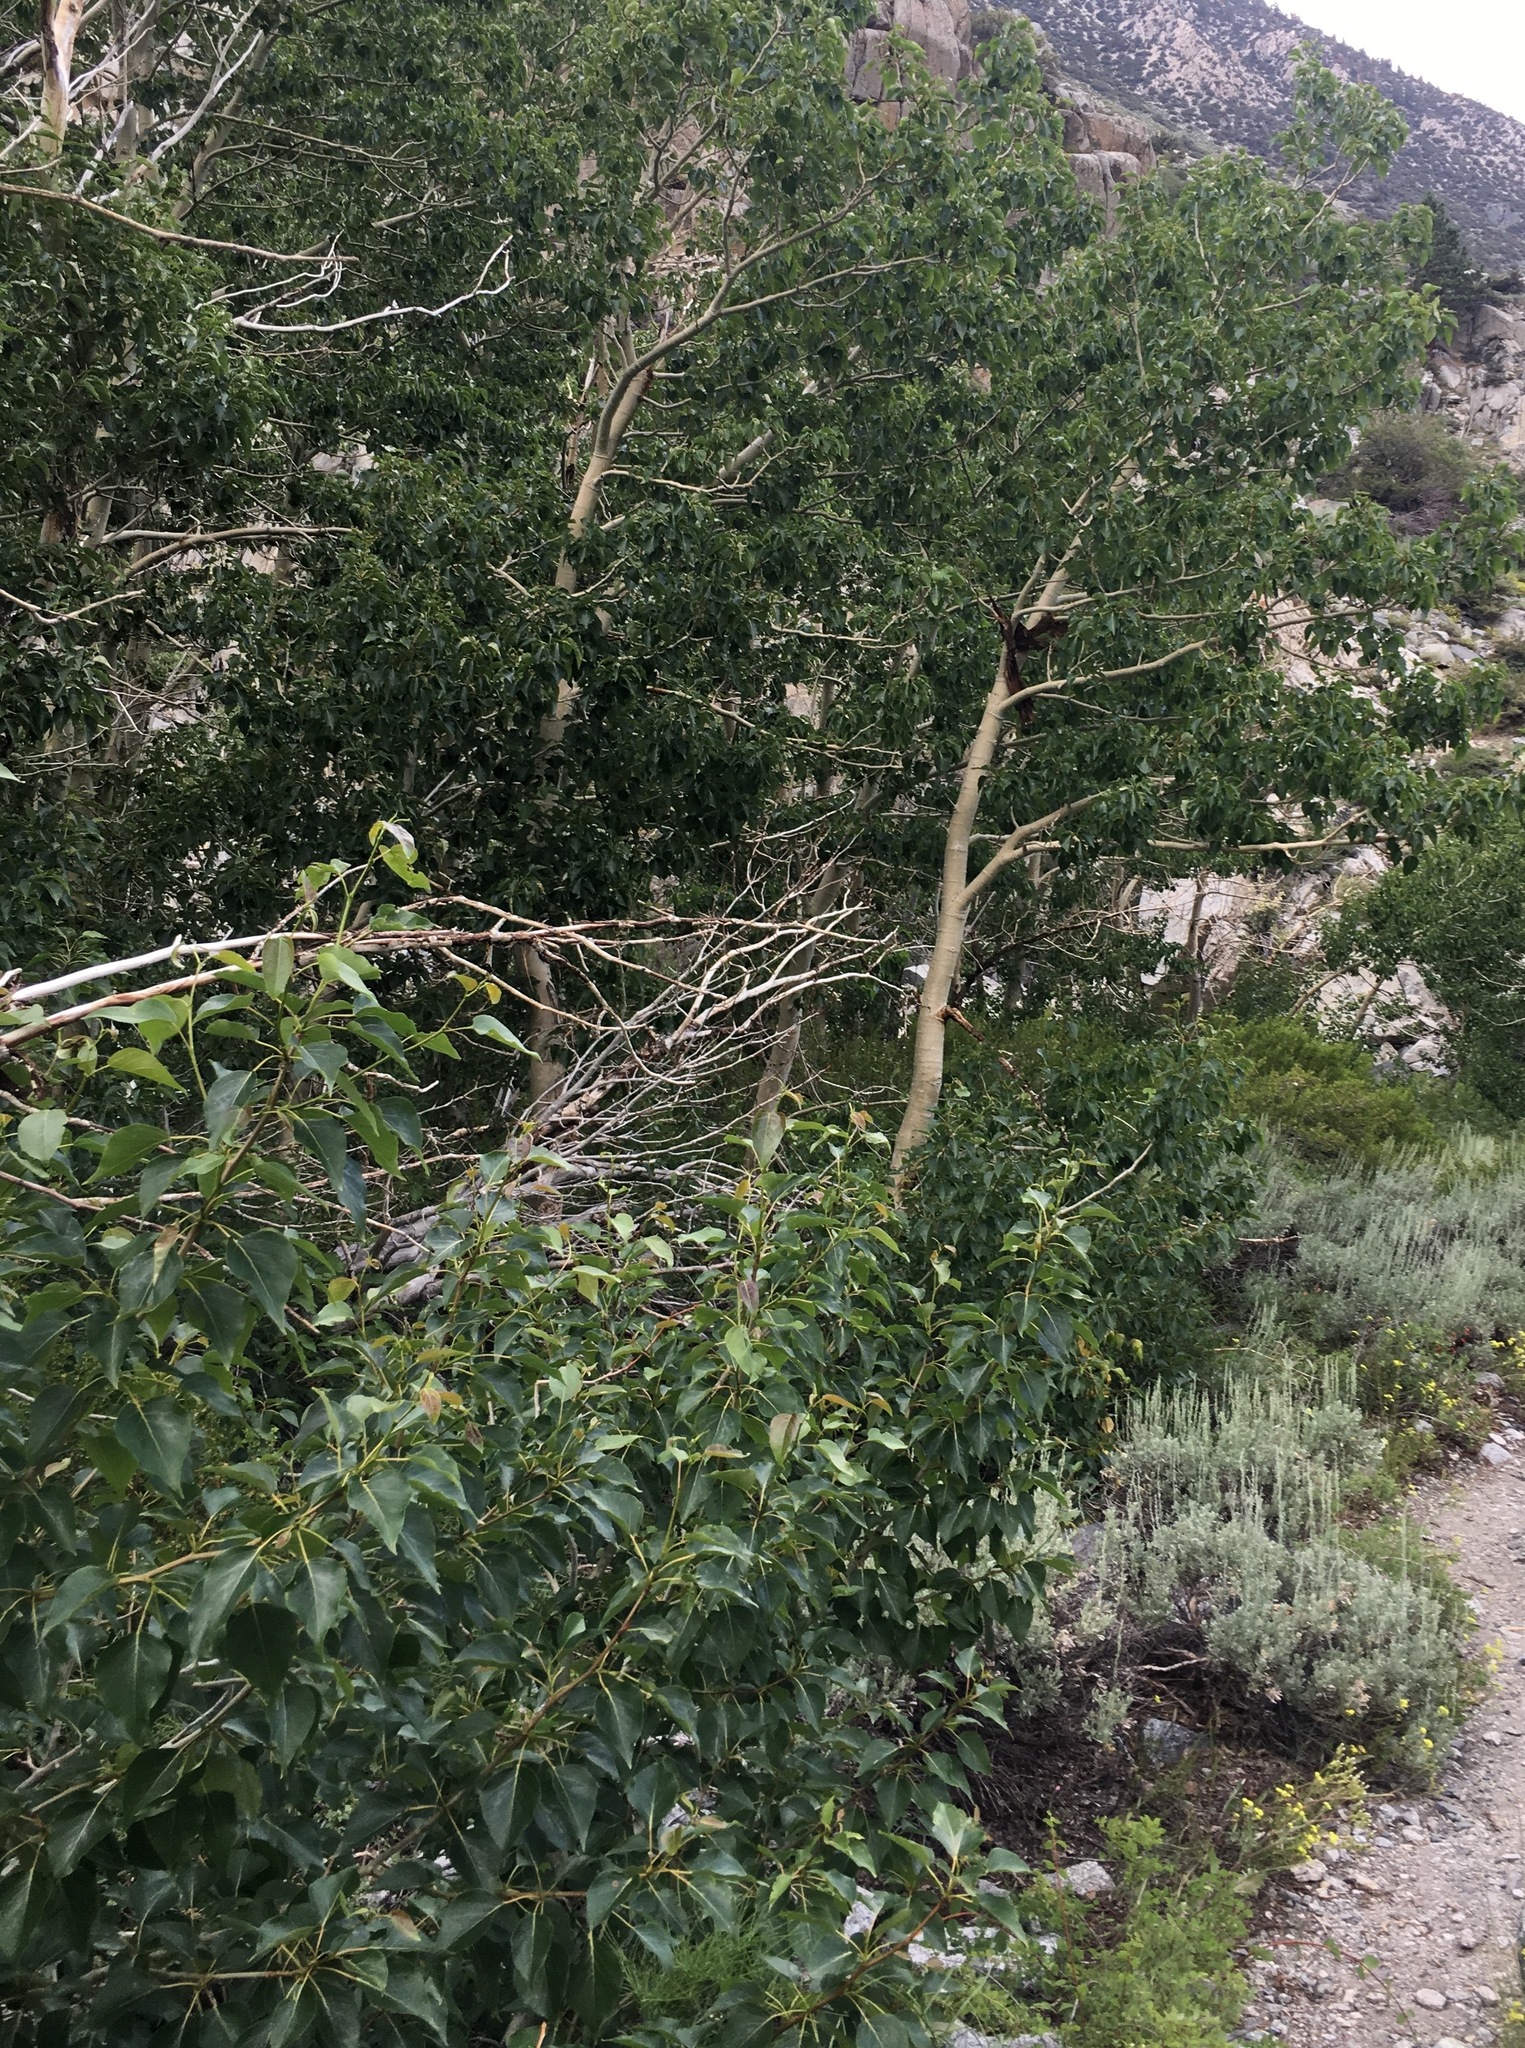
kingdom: Plantae
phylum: Tracheophyta
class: Magnoliopsida
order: Malpighiales
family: Salicaceae
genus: Populus
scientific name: Populus trichocarpa
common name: Black cottonwood
